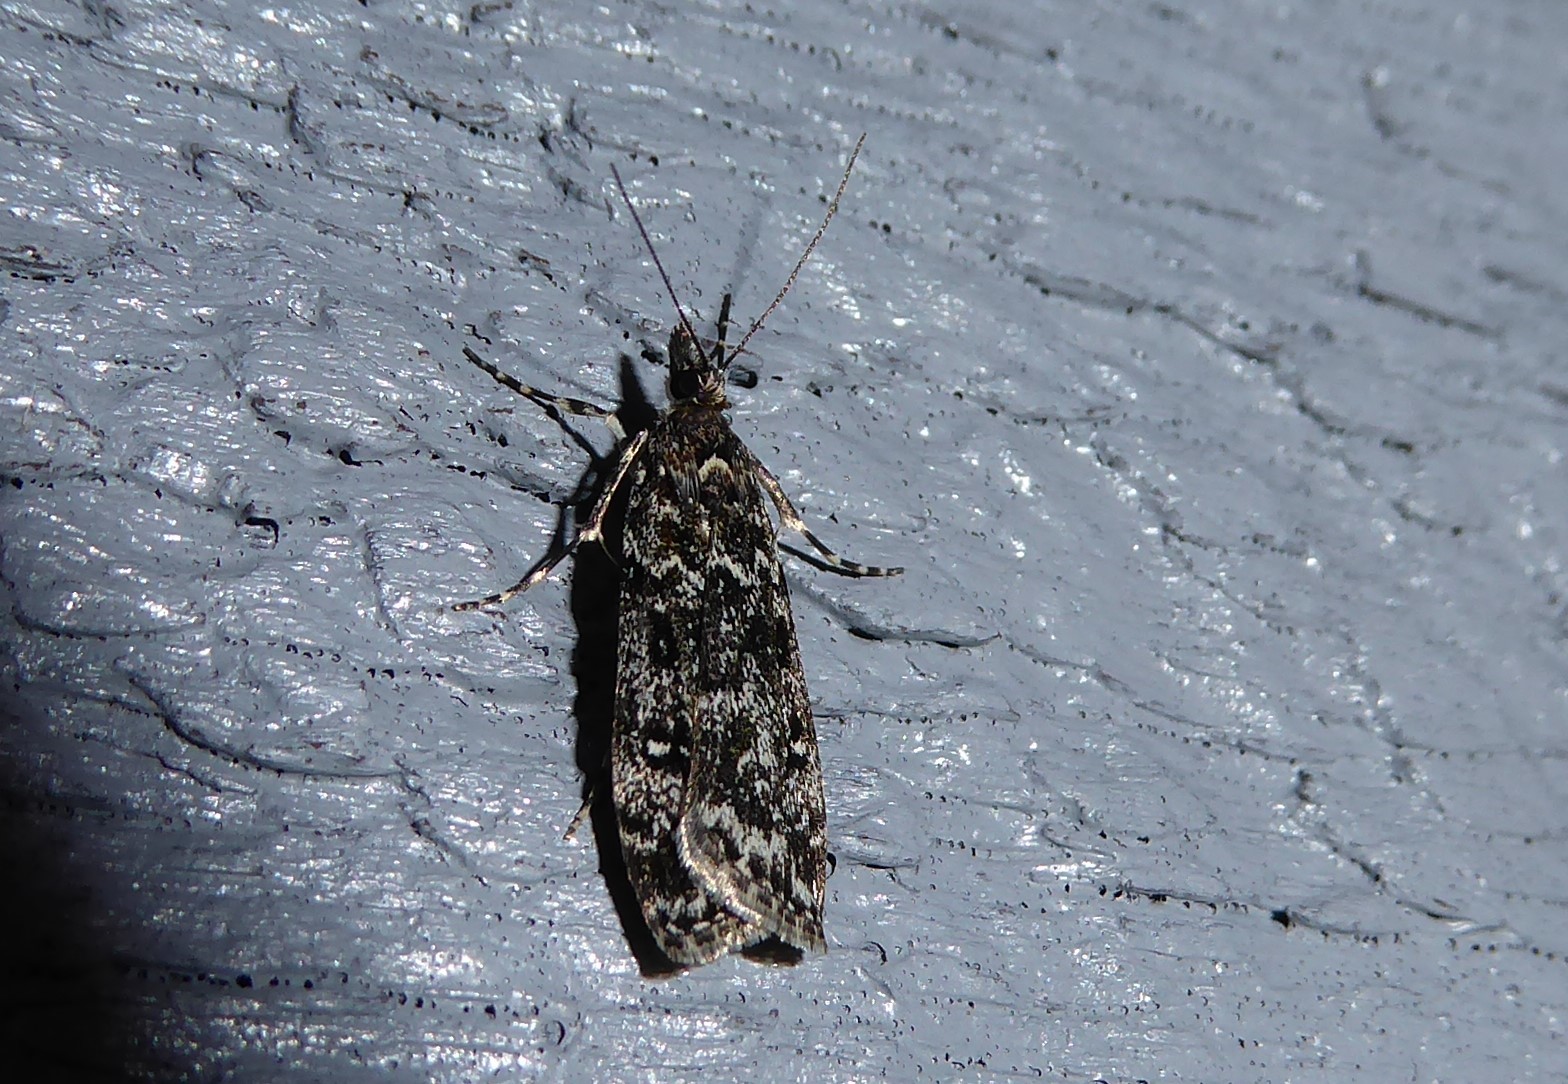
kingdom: Animalia
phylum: Arthropoda
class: Insecta
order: Lepidoptera
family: Crambidae
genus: Eudonia
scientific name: Eudonia philerga
